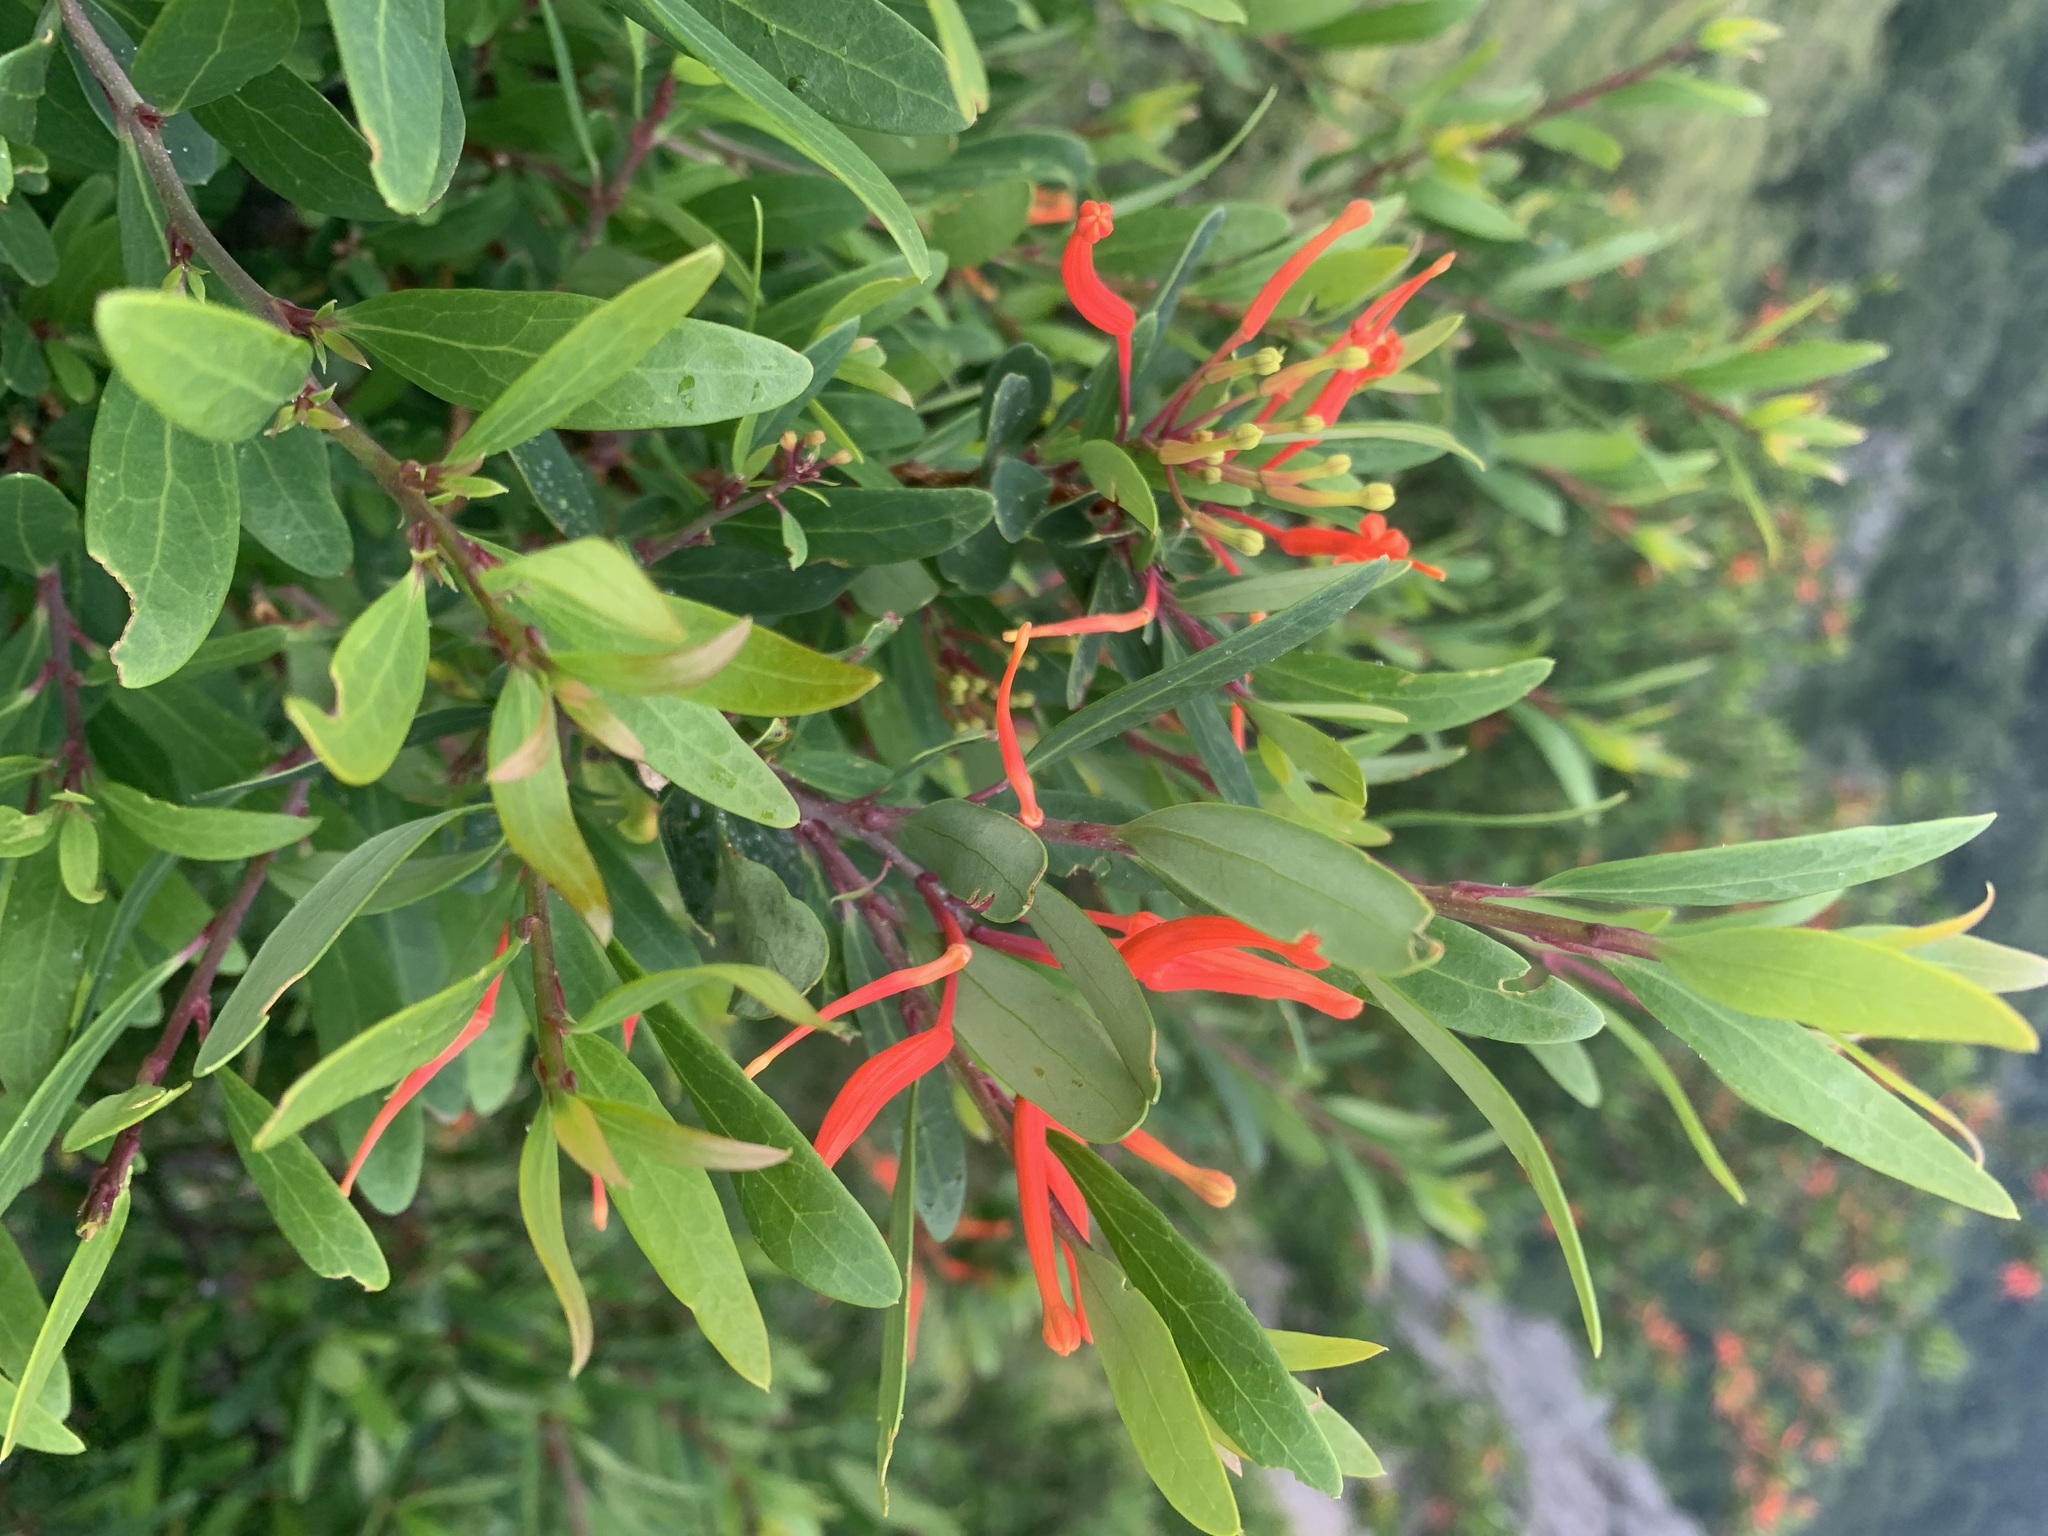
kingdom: Plantae
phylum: Tracheophyta
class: Magnoliopsida
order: Proteales
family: Proteaceae
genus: Embothrium
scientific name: Embothrium coccineum
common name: Chilean firebush
